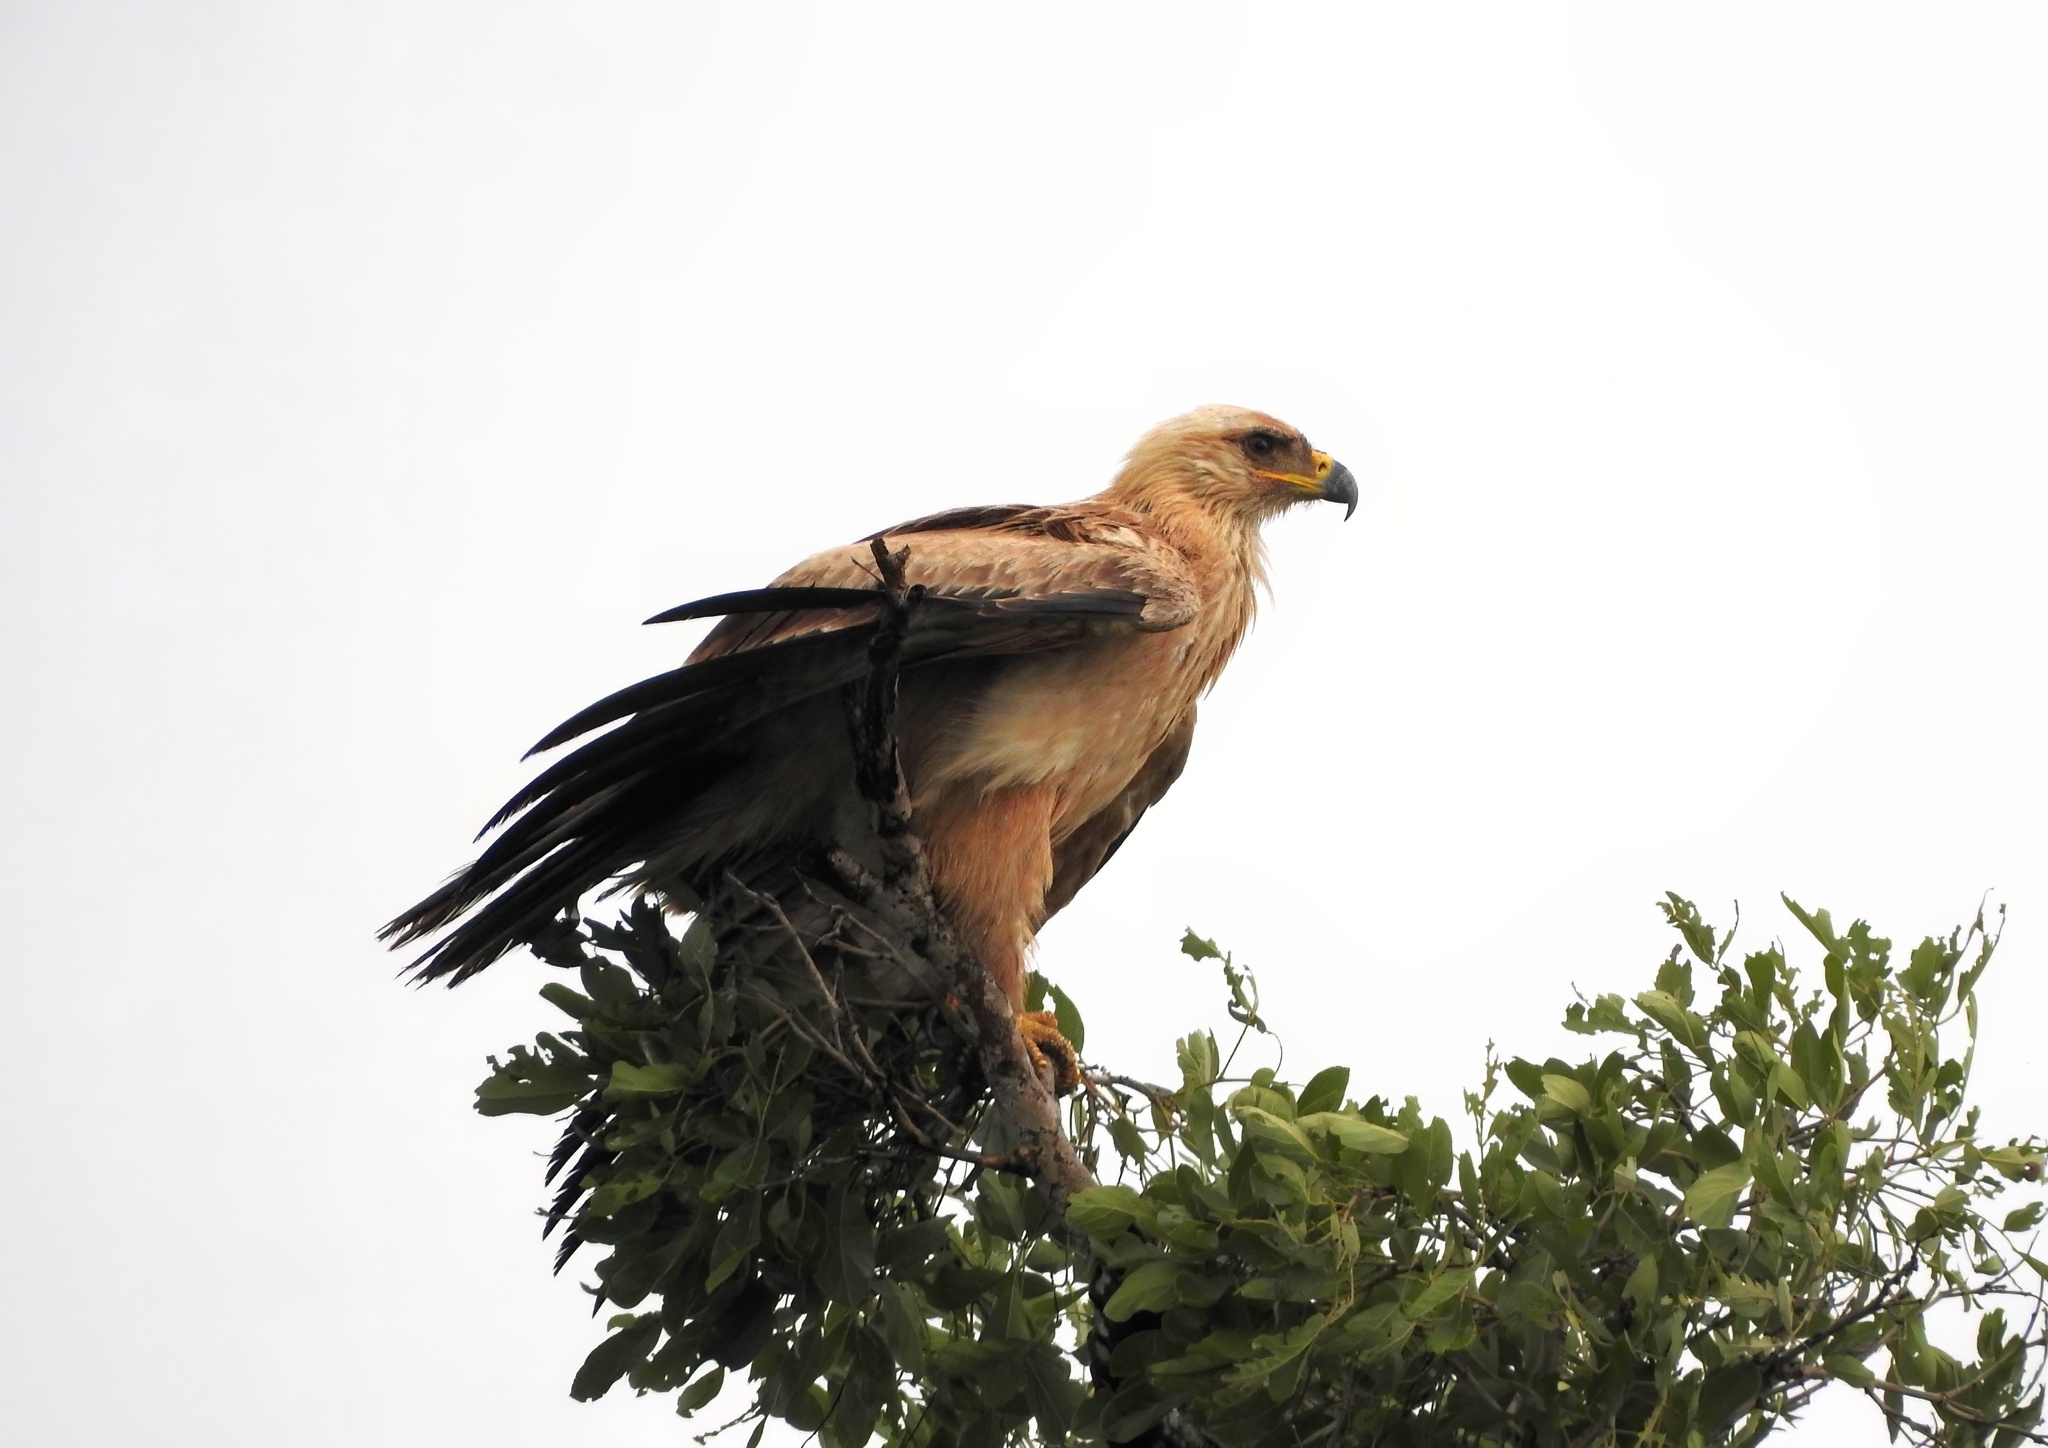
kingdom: Animalia
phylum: Chordata
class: Aves
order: Accipitriformes
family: Accipitridae
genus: Aquila
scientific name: Aquila rapax
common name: Tawny eagle
